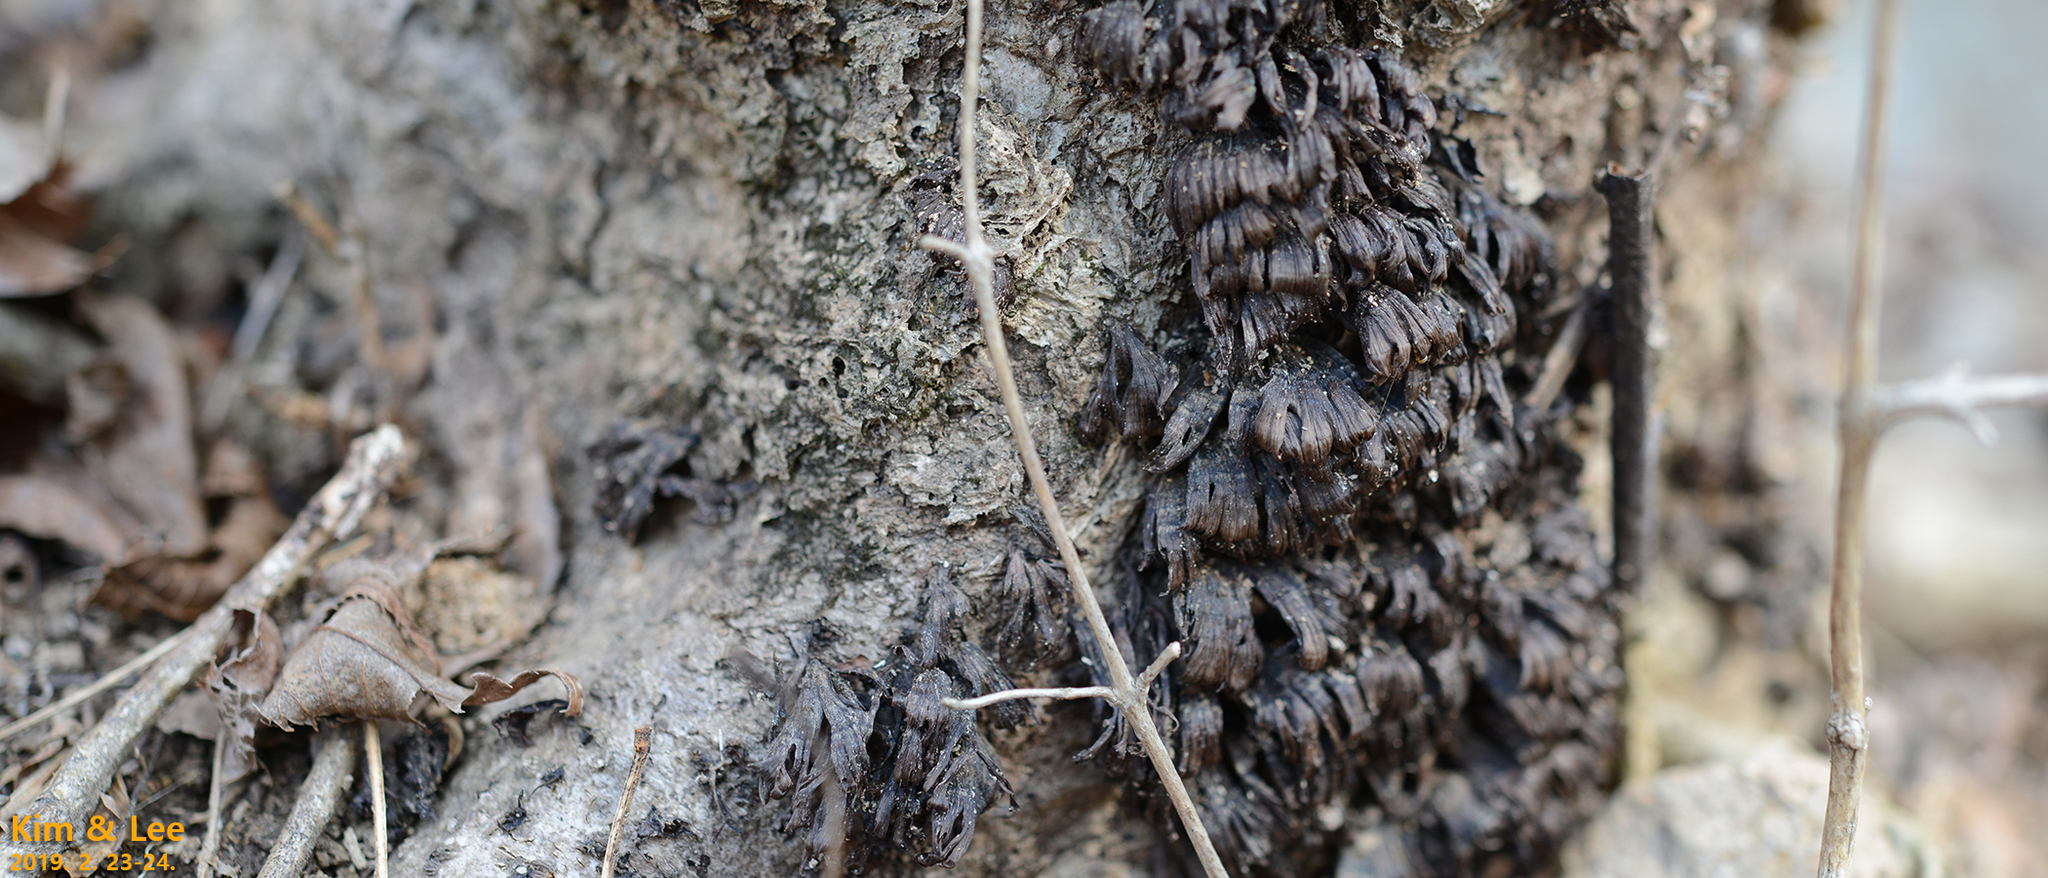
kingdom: Fungi
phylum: Basidiomycota
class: Agaricomycetes
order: Russulales
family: Stereaceae
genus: Xylobolus
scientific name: Xylobolus spectabilis
